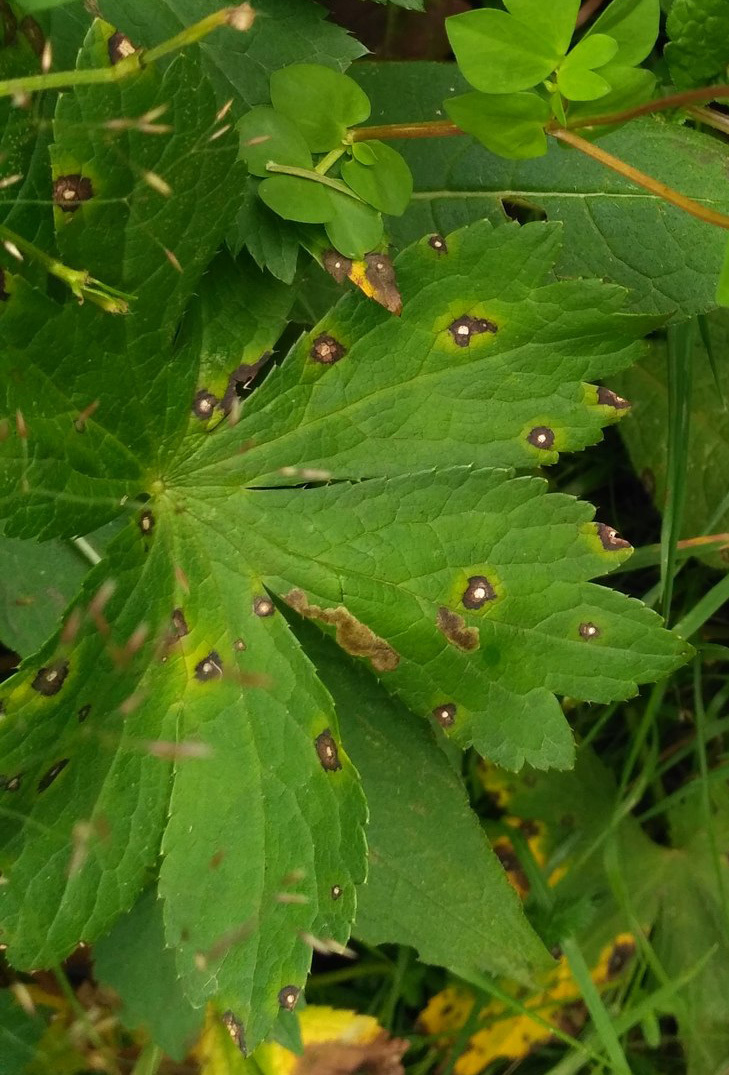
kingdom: Plantae
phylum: Tracheophyta
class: Magnoliopsida
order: Apiales
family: Apiaceae
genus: Astrantia
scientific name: Astrantia major
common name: Greater masterwort
